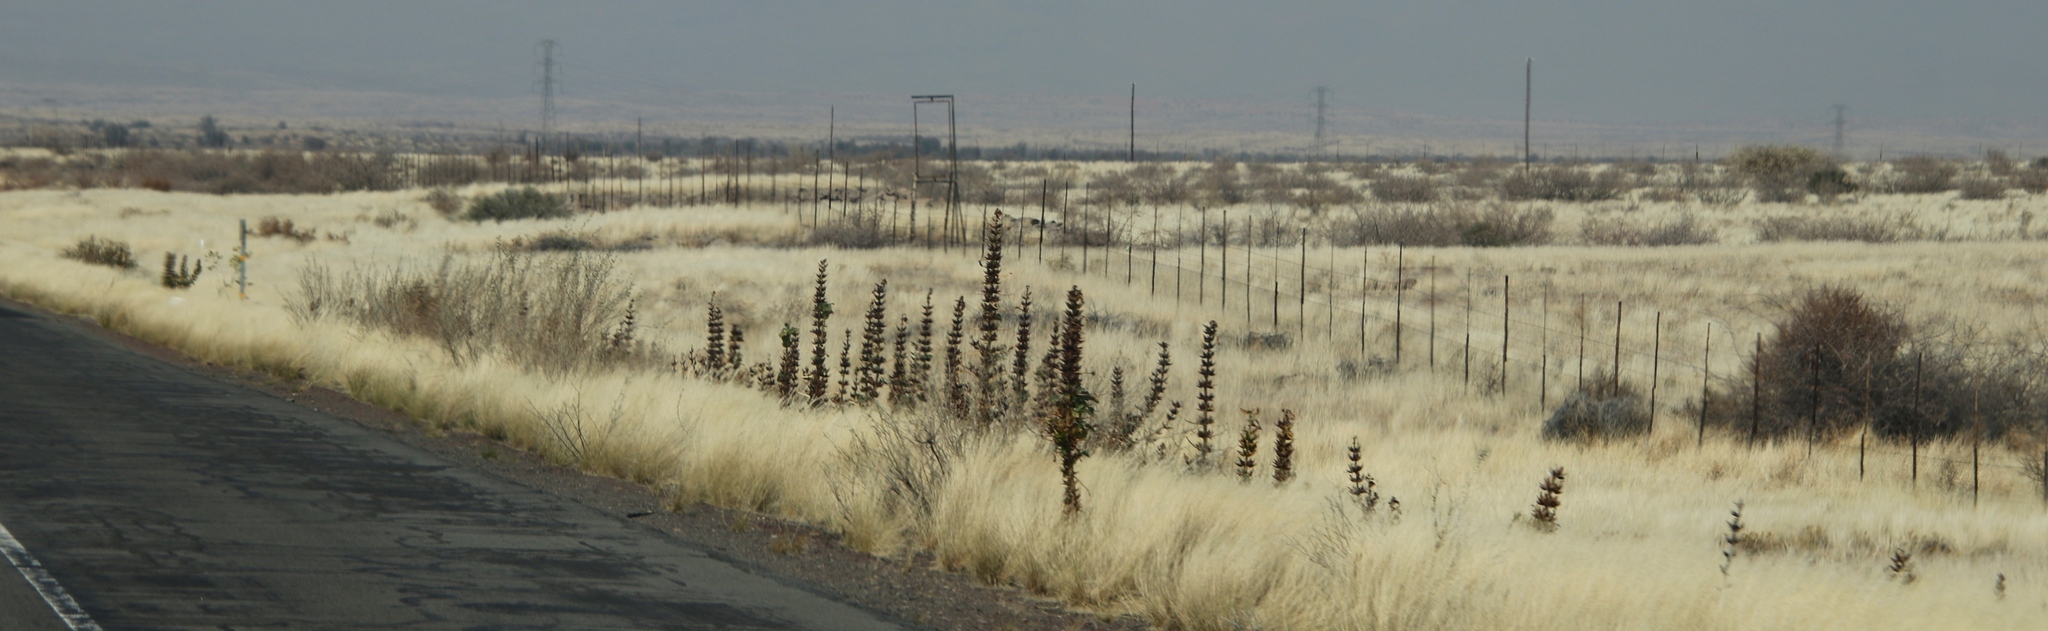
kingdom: Plantae
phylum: Tracheophyta
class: Magnoliopsida
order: Lamiales
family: Pedaliaceae
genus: Rogeria
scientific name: Rogeria longiflora
